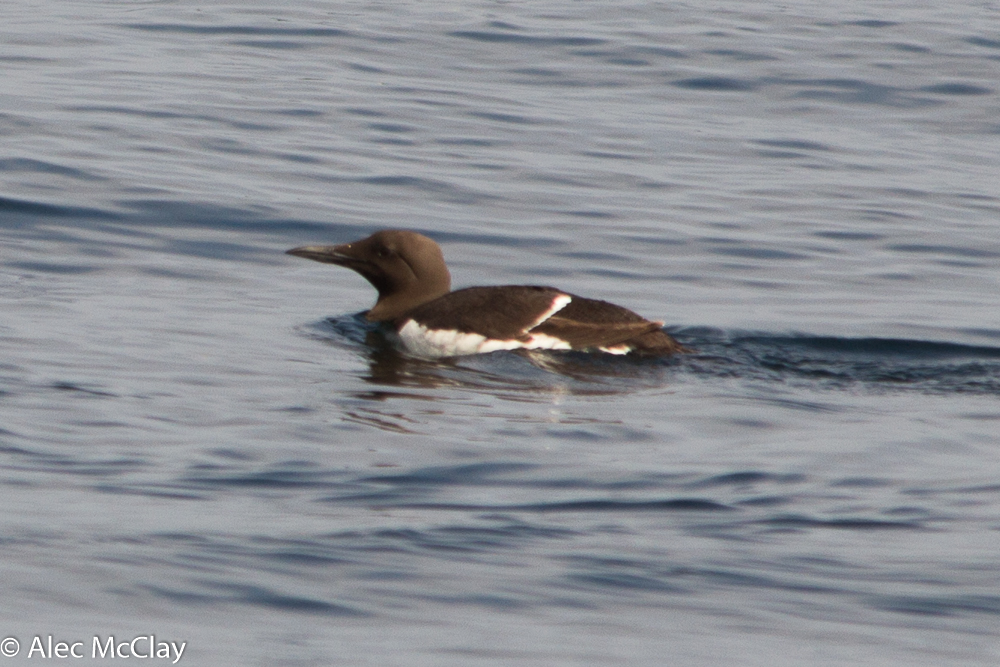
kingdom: Animalia
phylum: Chordata
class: Aves
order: Charadriiformes
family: Alcidae
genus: Uria
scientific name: Uria aalge
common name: Common murre
